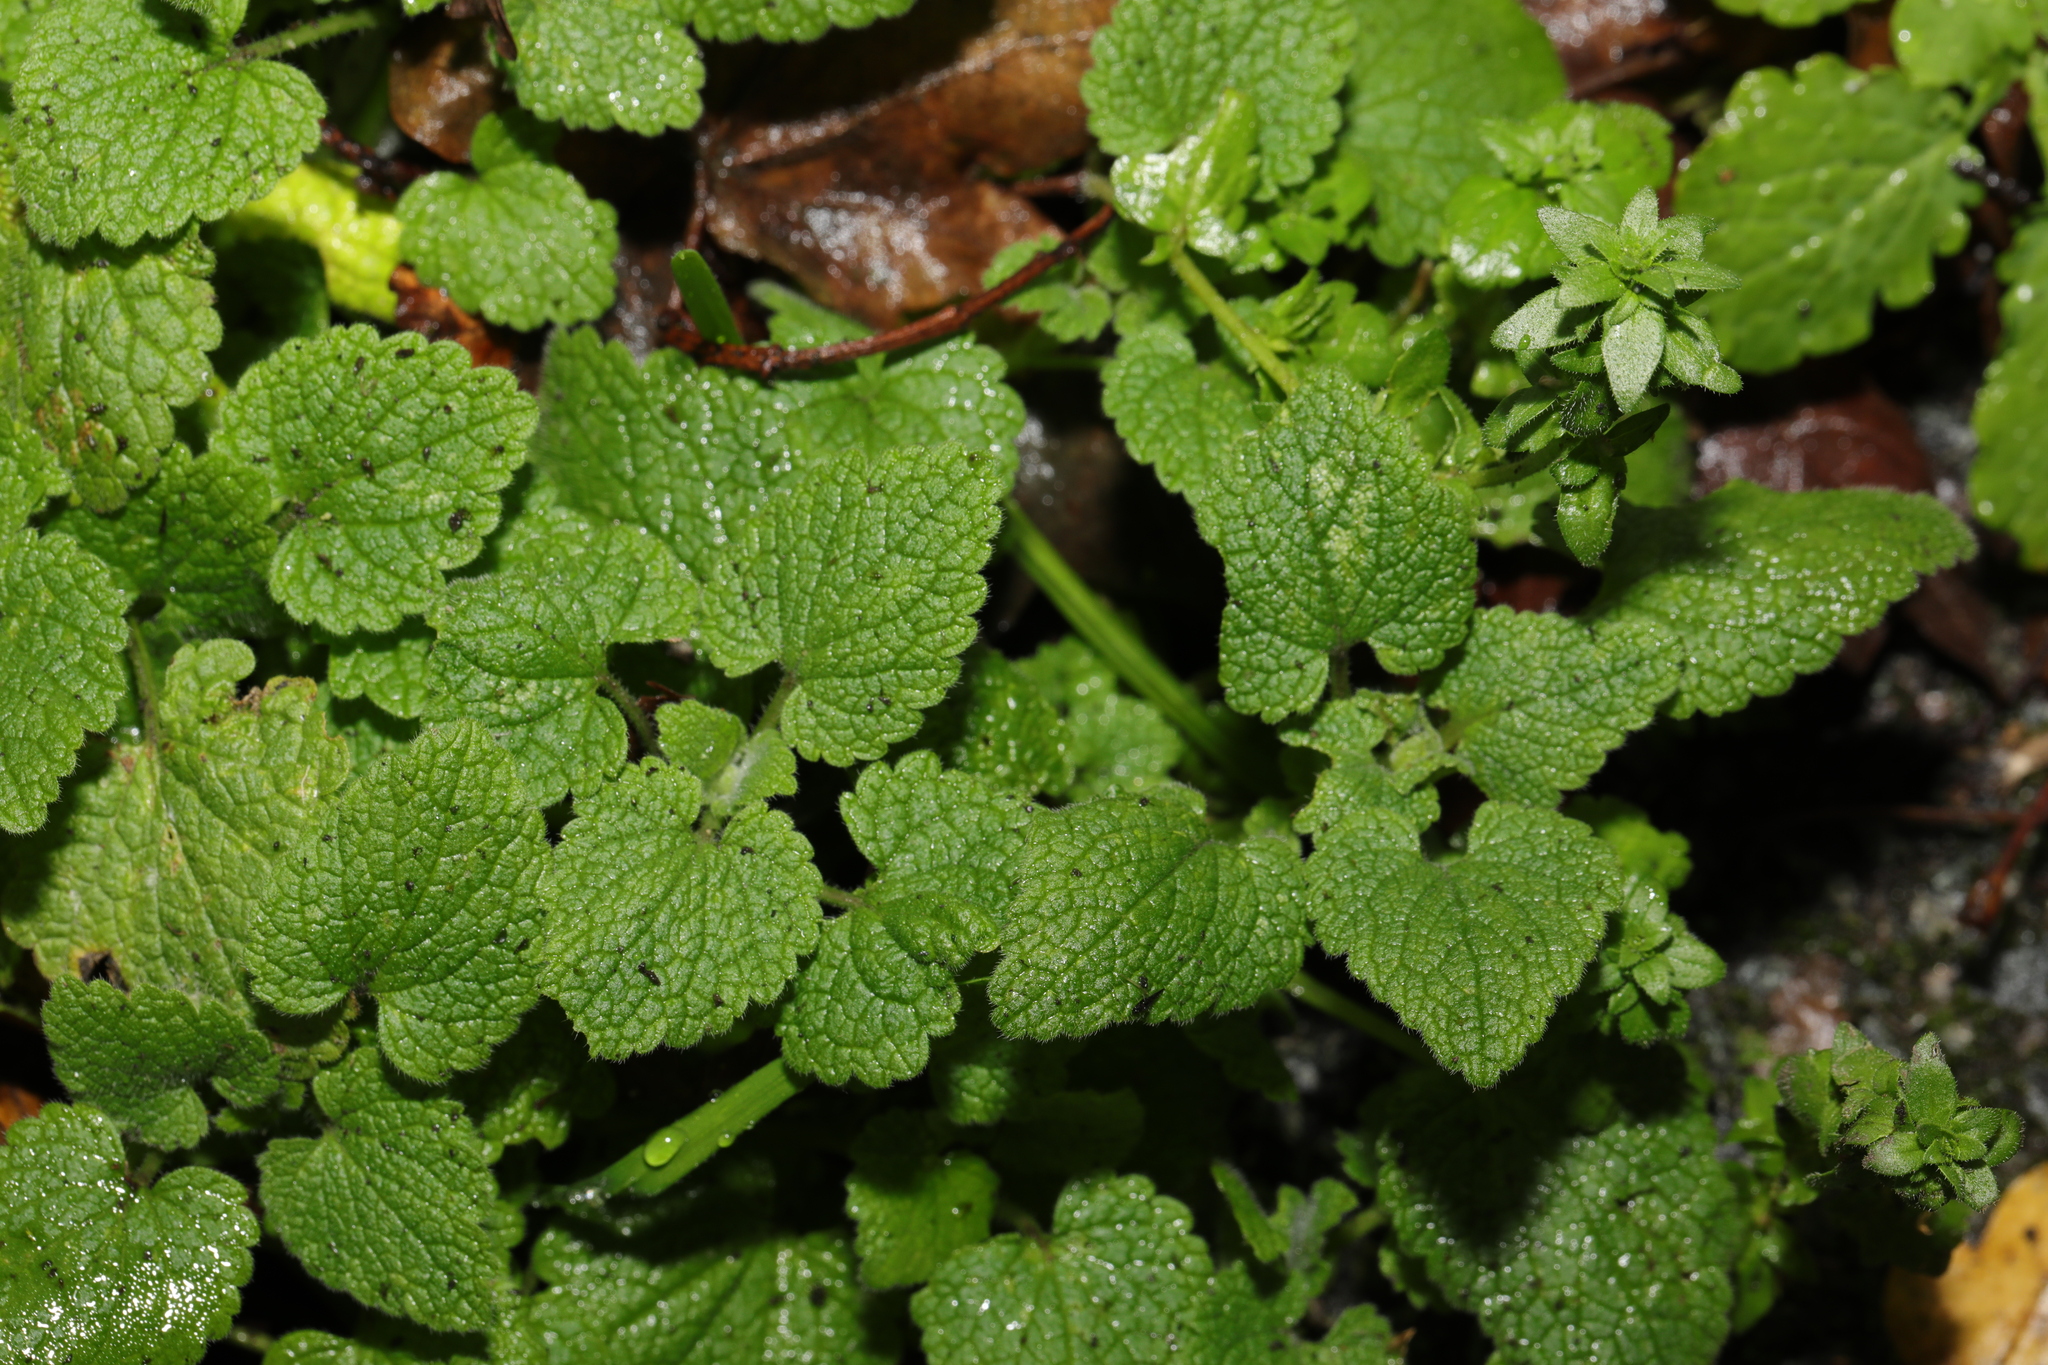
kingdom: Plantae
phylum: Tracheophyta
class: Magnoliopsida
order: Lamiales
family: Lamiaceae
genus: Lamium
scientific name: Lamium purpureum
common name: Red dead-nettle
